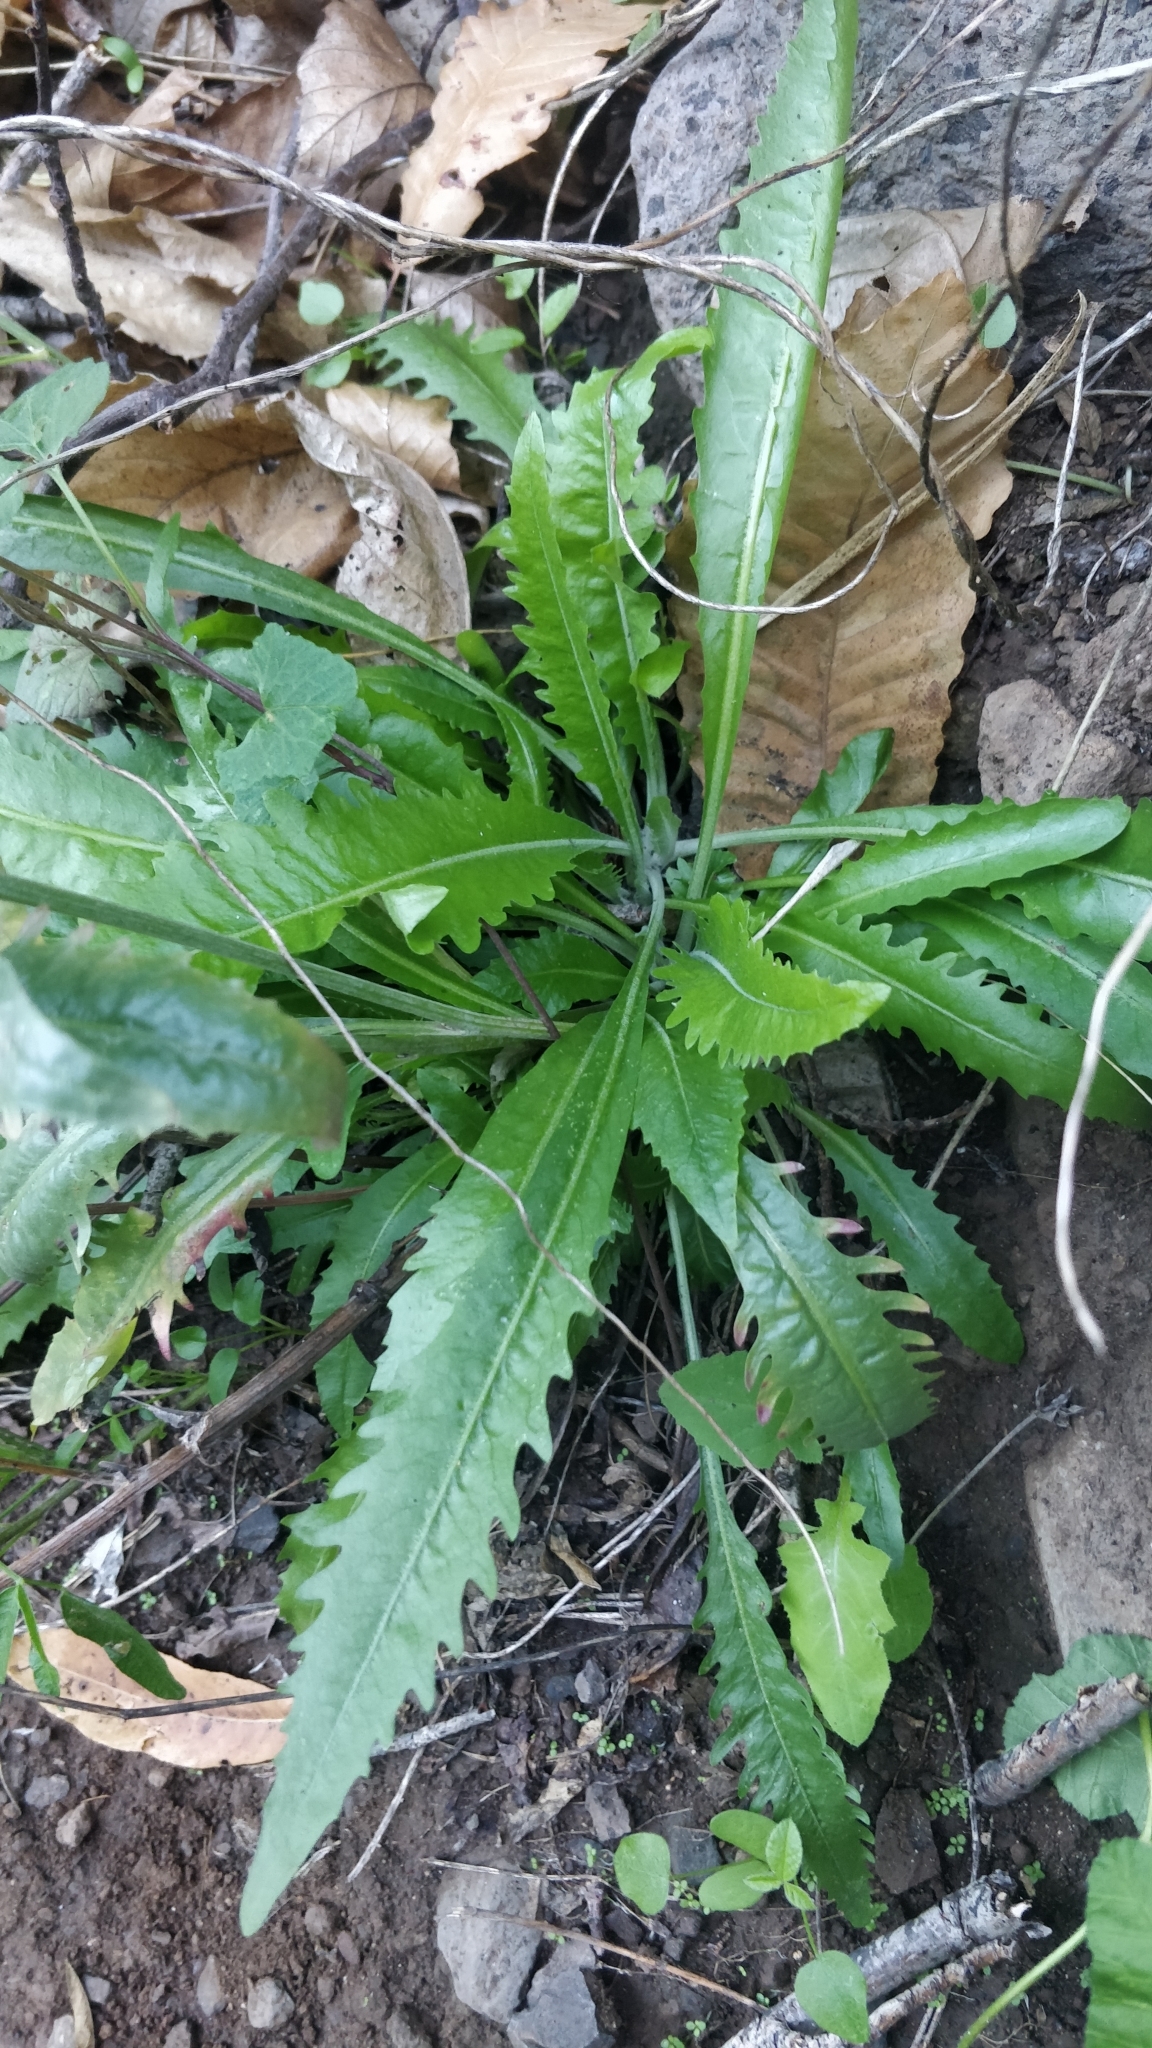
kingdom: Plantae
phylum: Tracheophyta
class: Magnoliopsida
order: Asterales
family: Asteraceae
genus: Tolpis
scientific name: Tolpis crassiuscula
